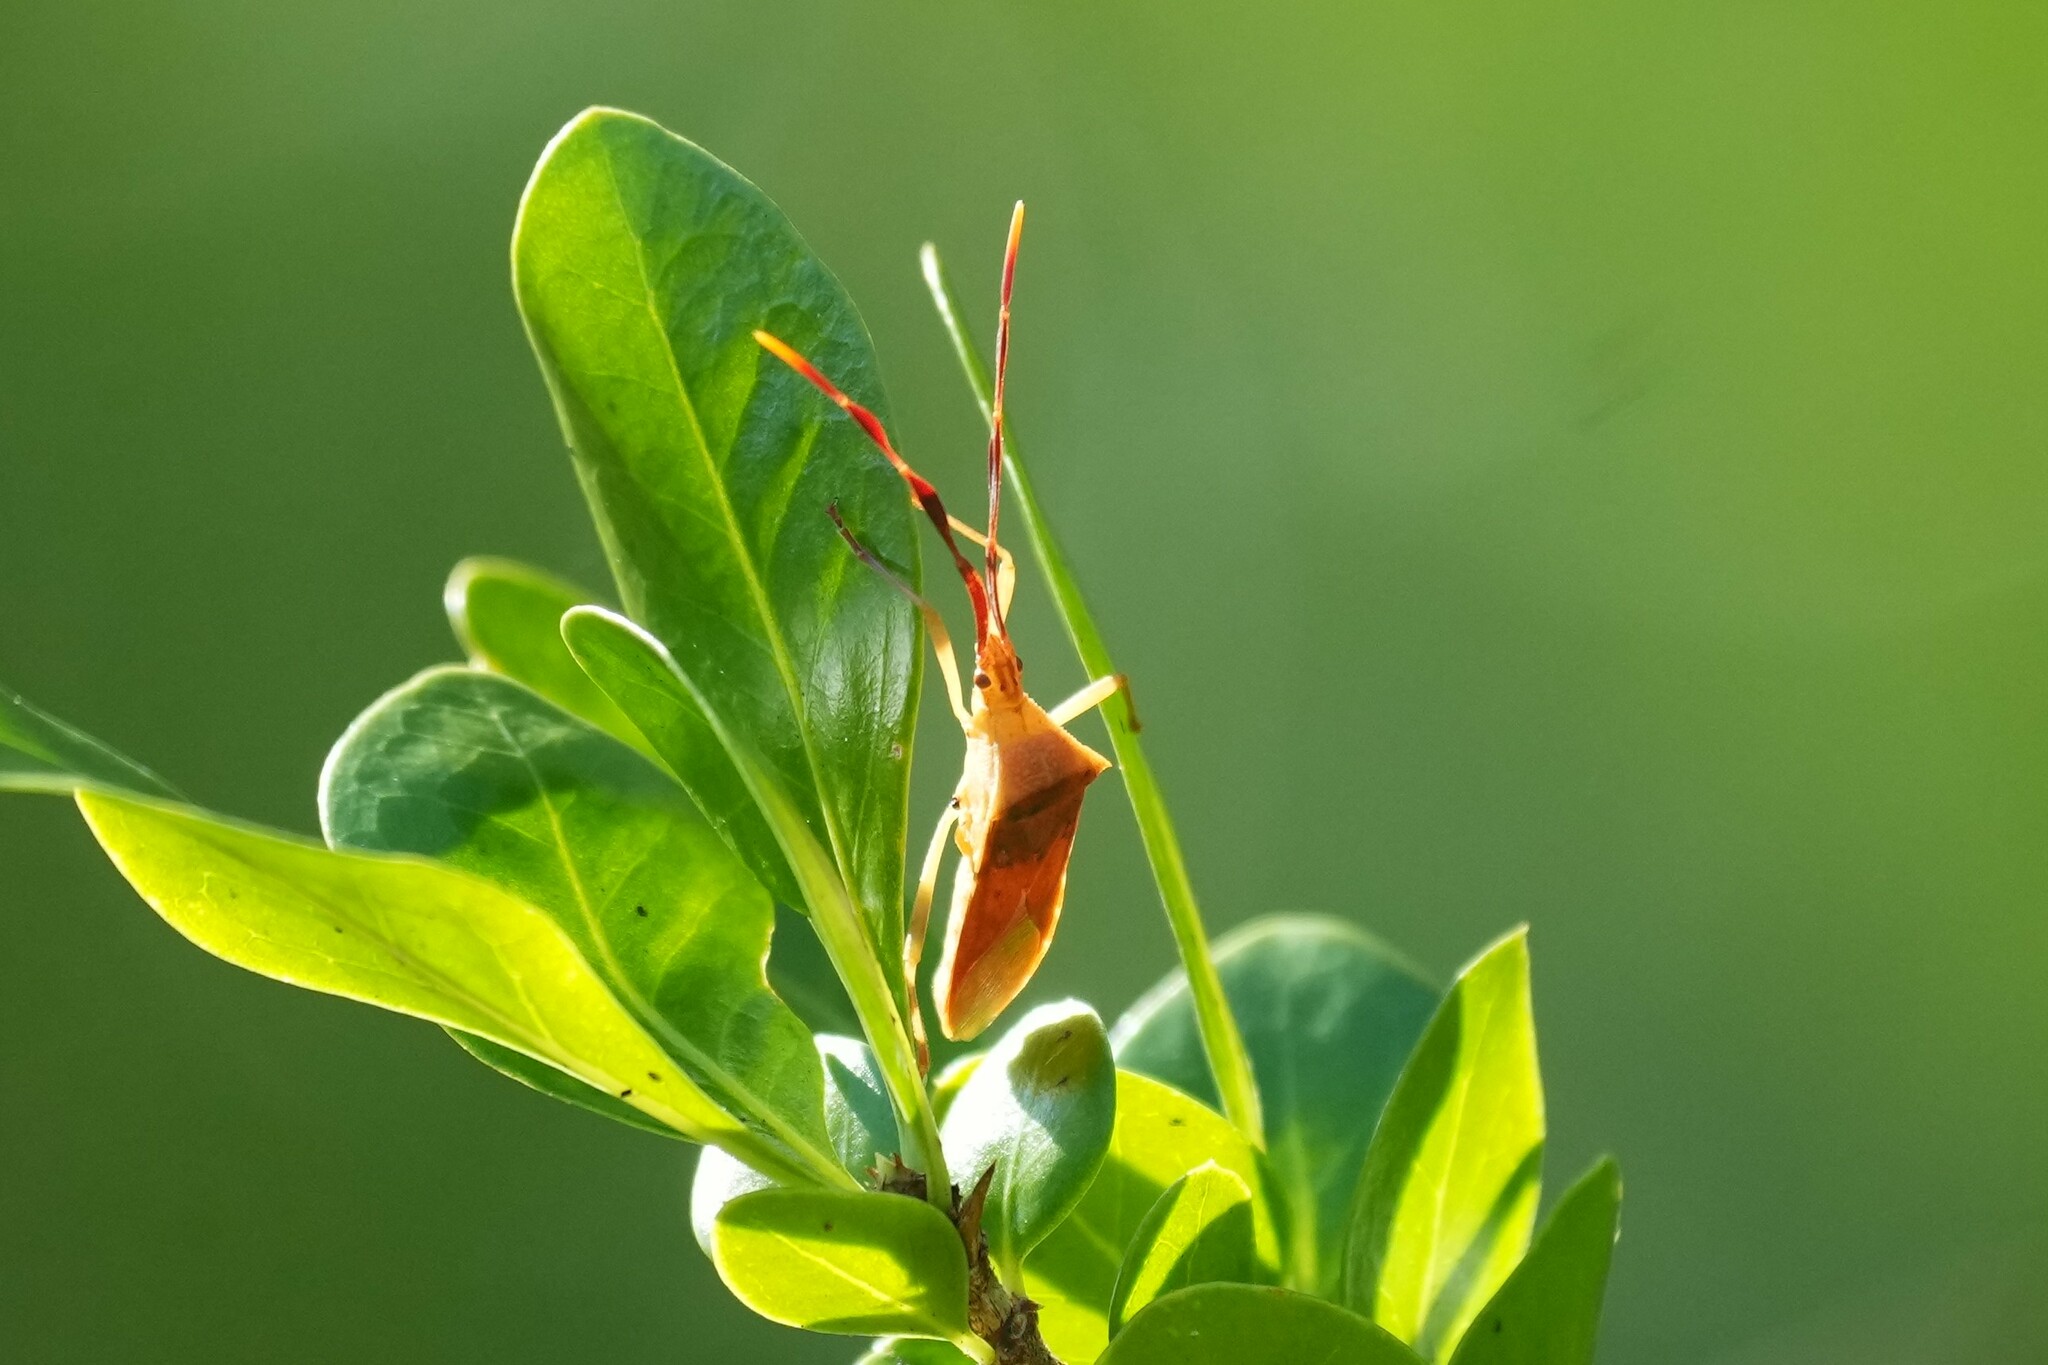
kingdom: Animalia
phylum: Arthropoda
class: Insecta
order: Hemiptera
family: Coreidae
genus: Chondrocera
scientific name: Chondrocera laticornis
